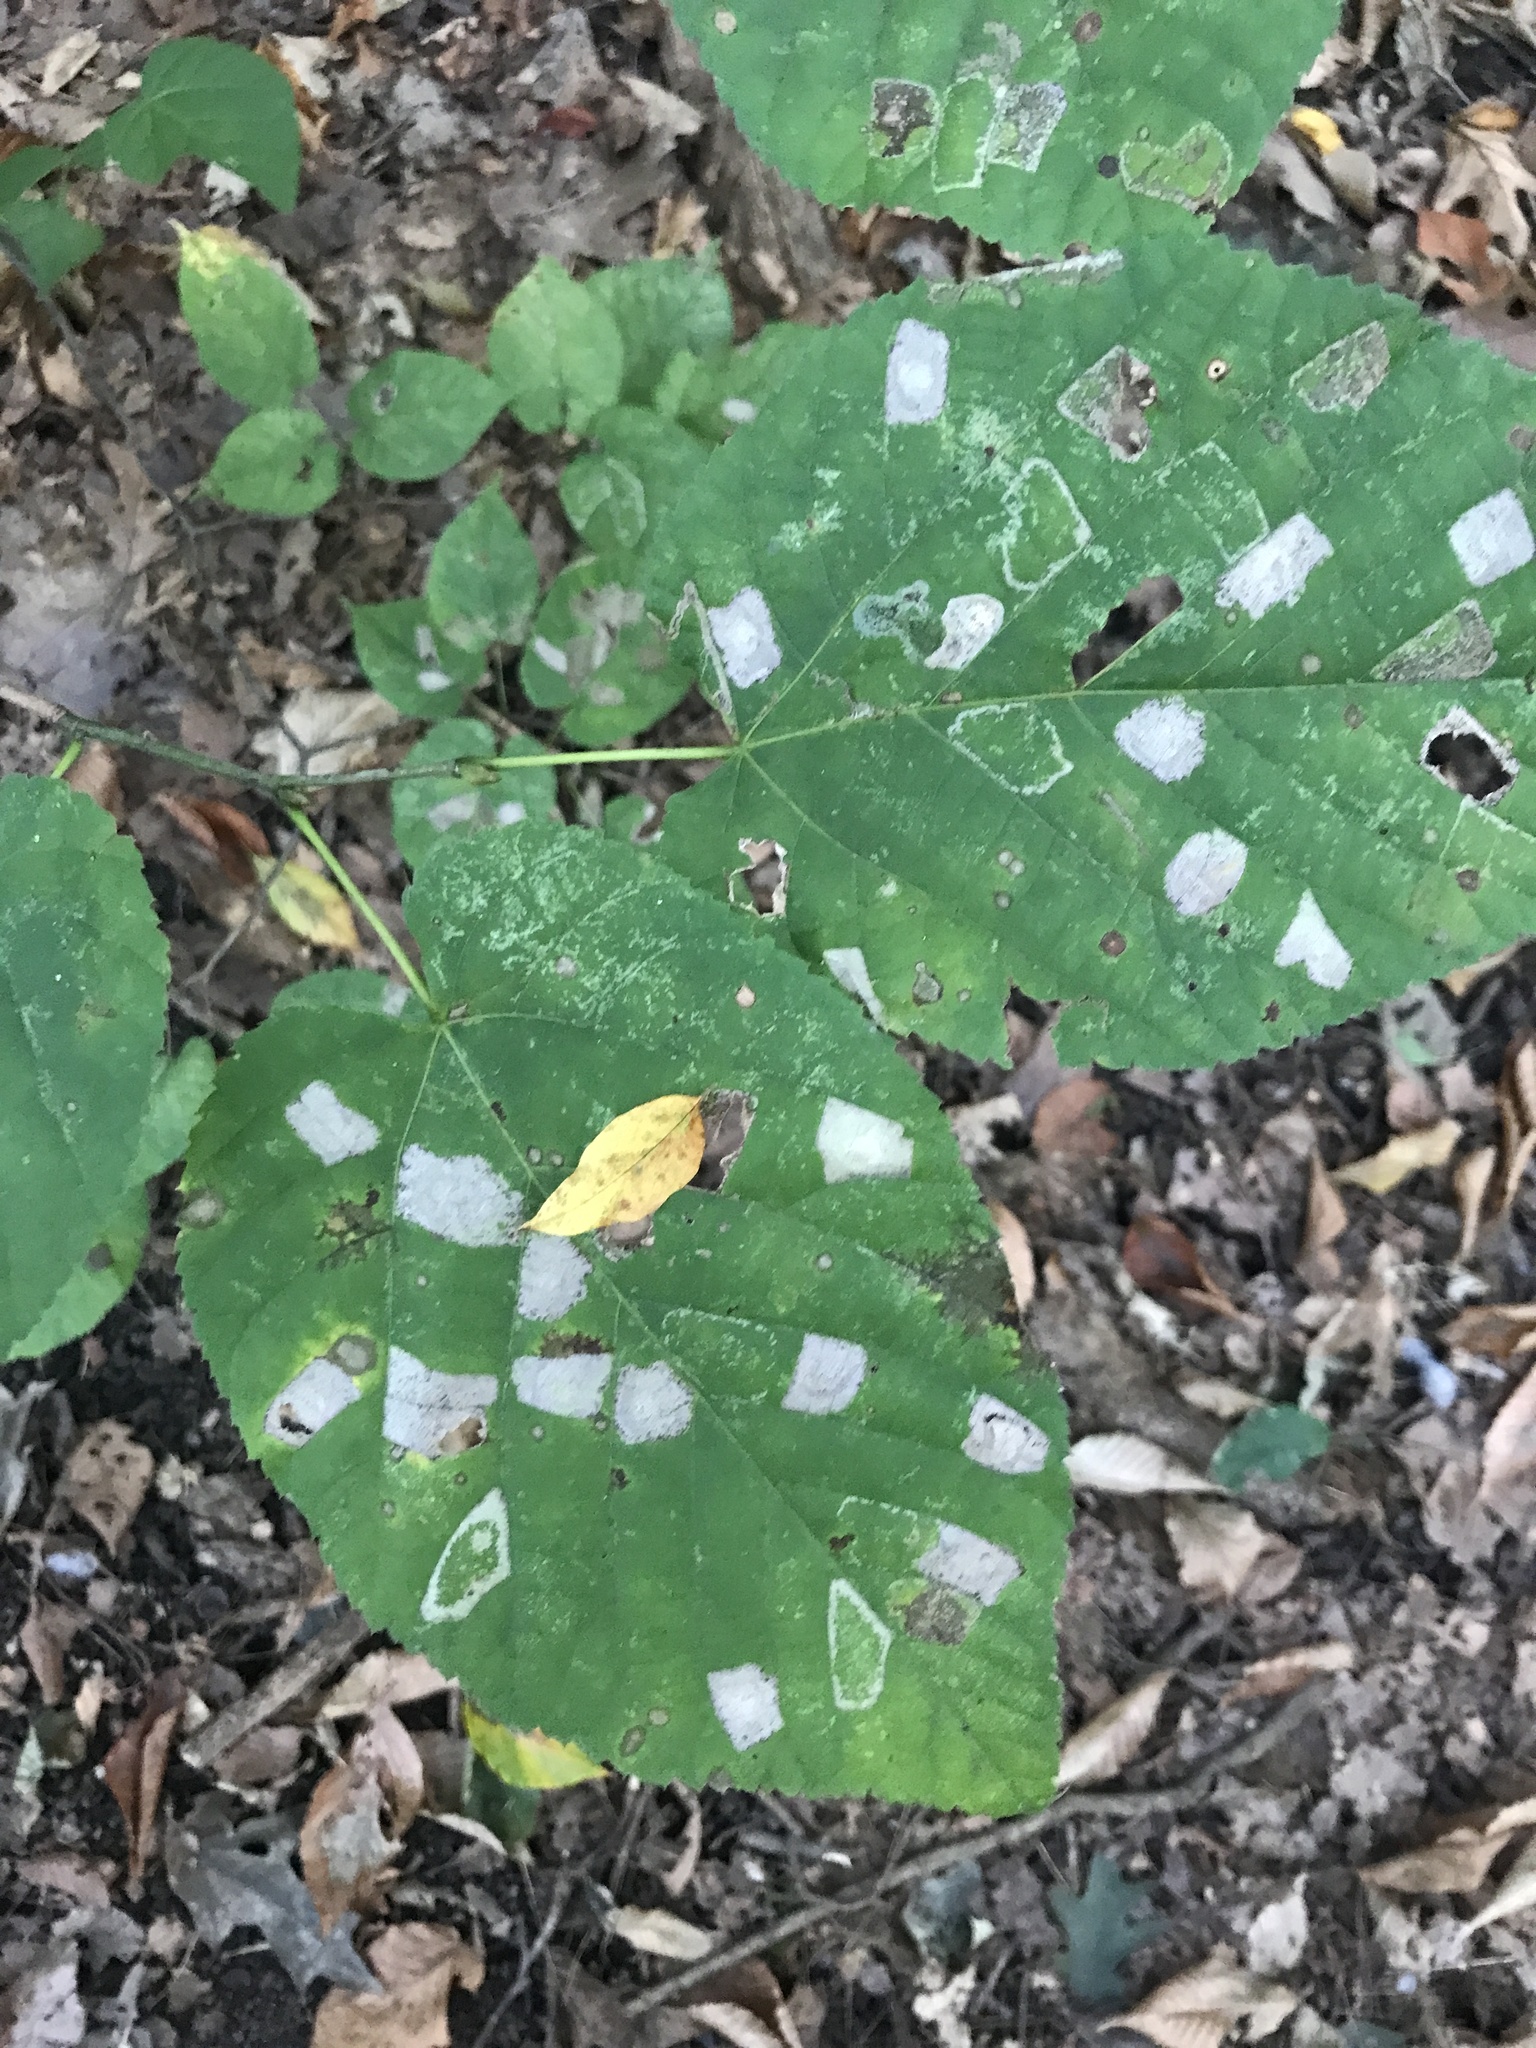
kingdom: Animalia
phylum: Arthropoda
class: Insecta
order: Lepidoptera
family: Gracillariidae
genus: Phyllonorycter
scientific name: Phyllonorycter lucetiella
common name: Basswood miner moth
